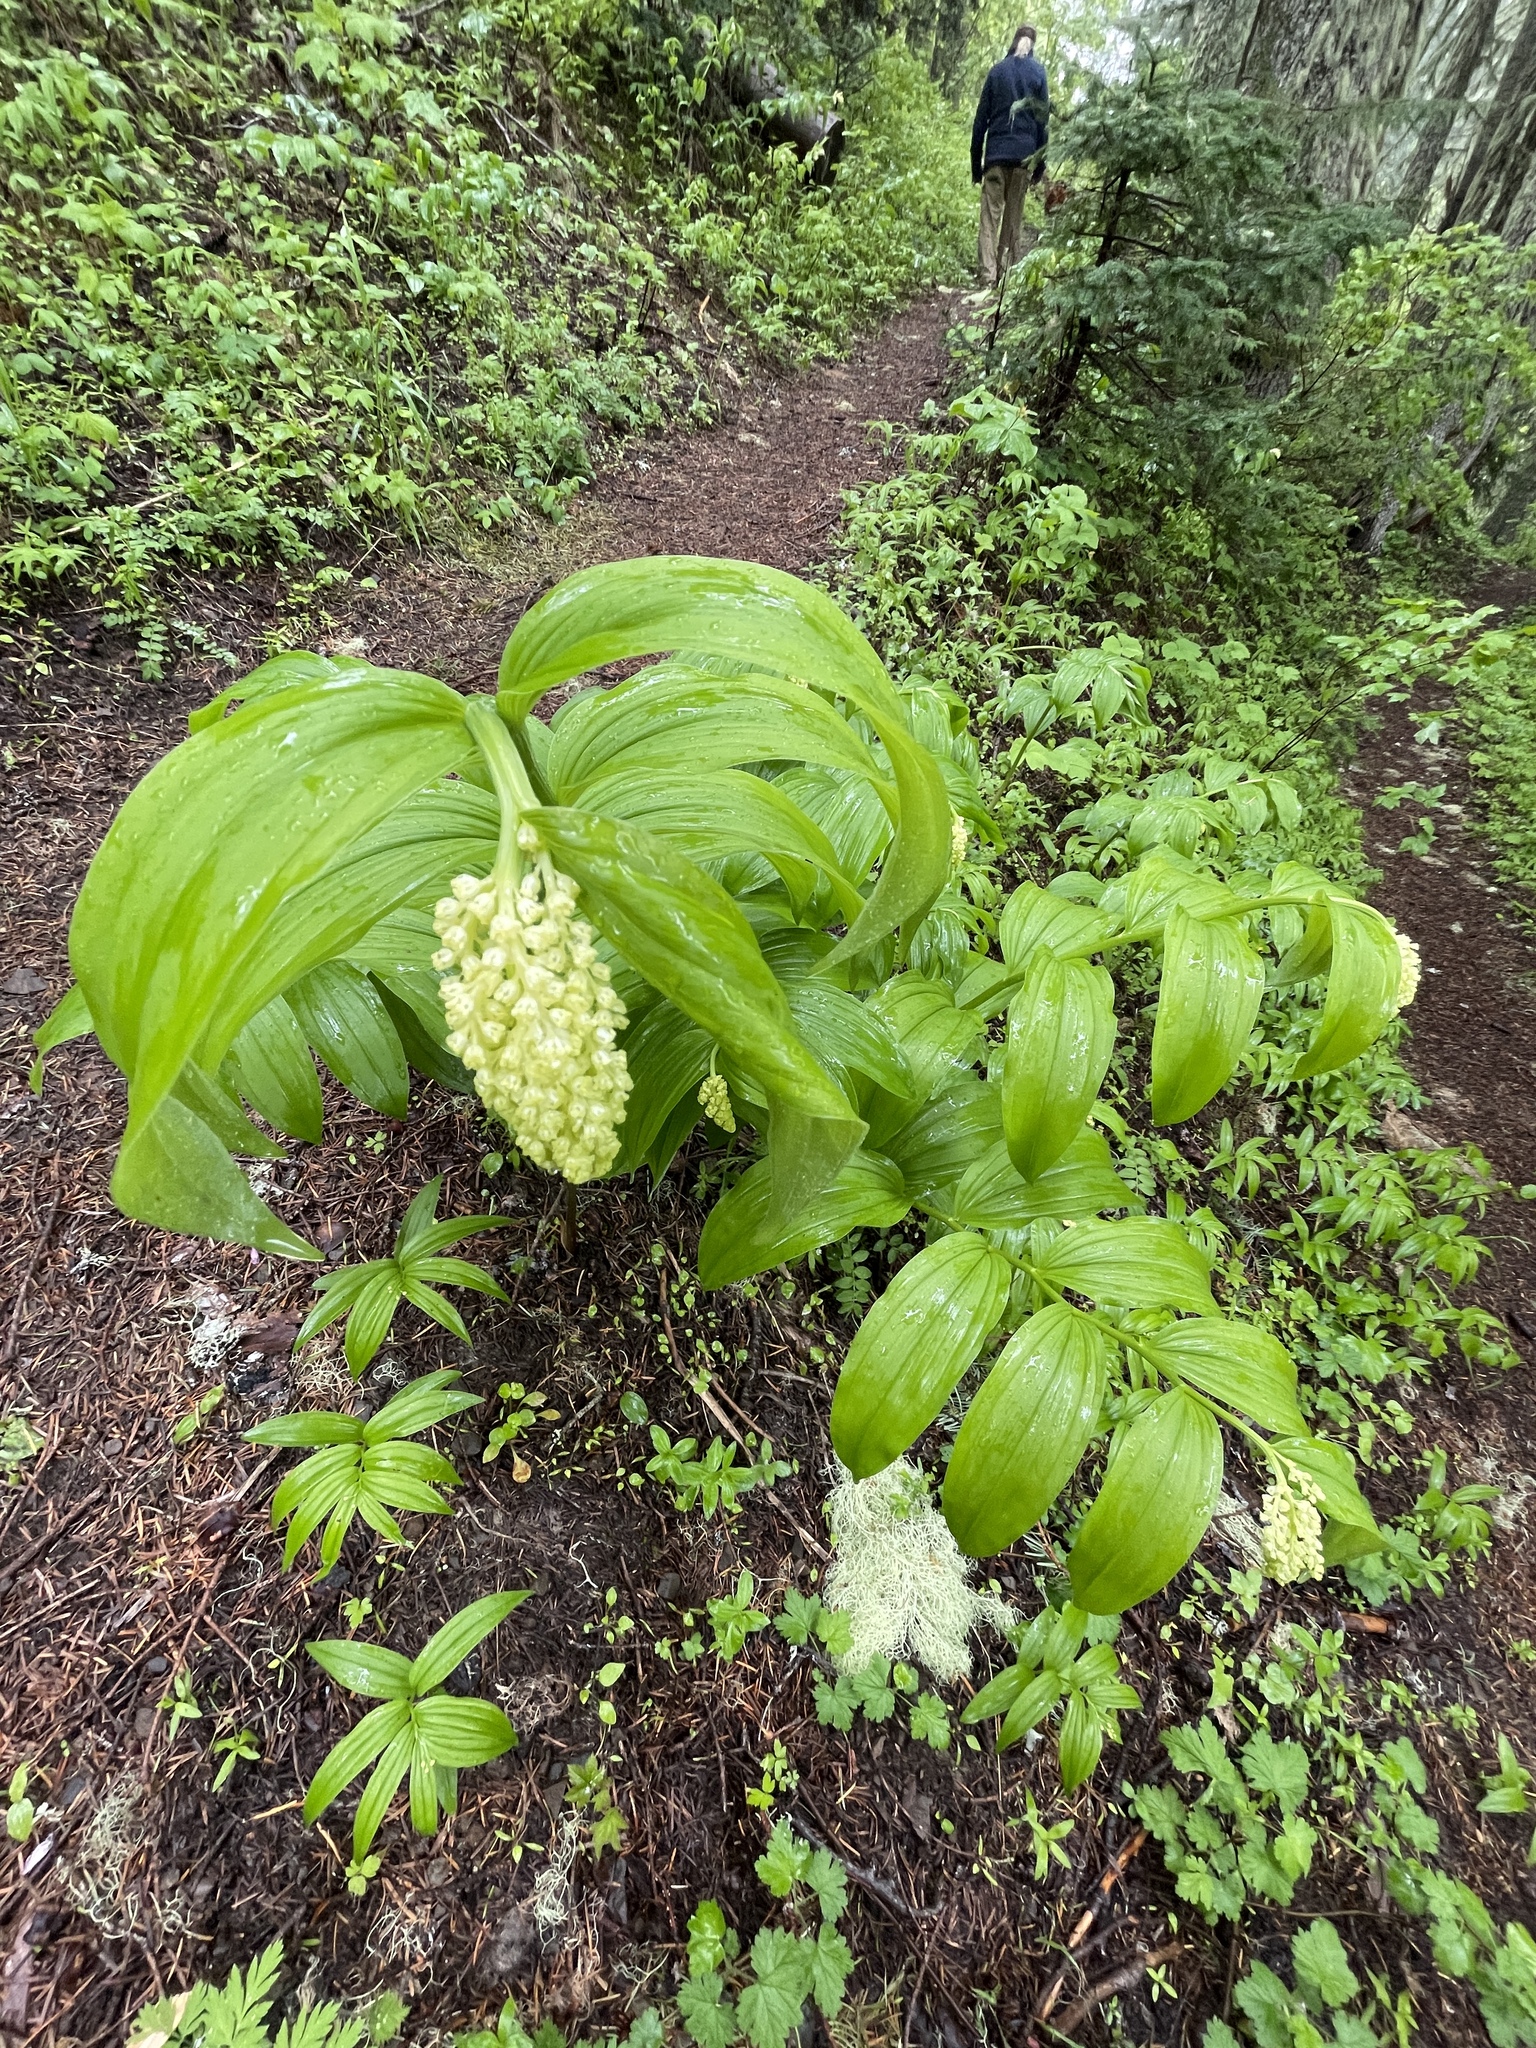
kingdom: Plantae
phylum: Tracheophyta
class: Liliopsida
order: Asparagales
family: Asparagaceae
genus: Maianthemum
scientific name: Maianthemum racemosum
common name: False spikenard
